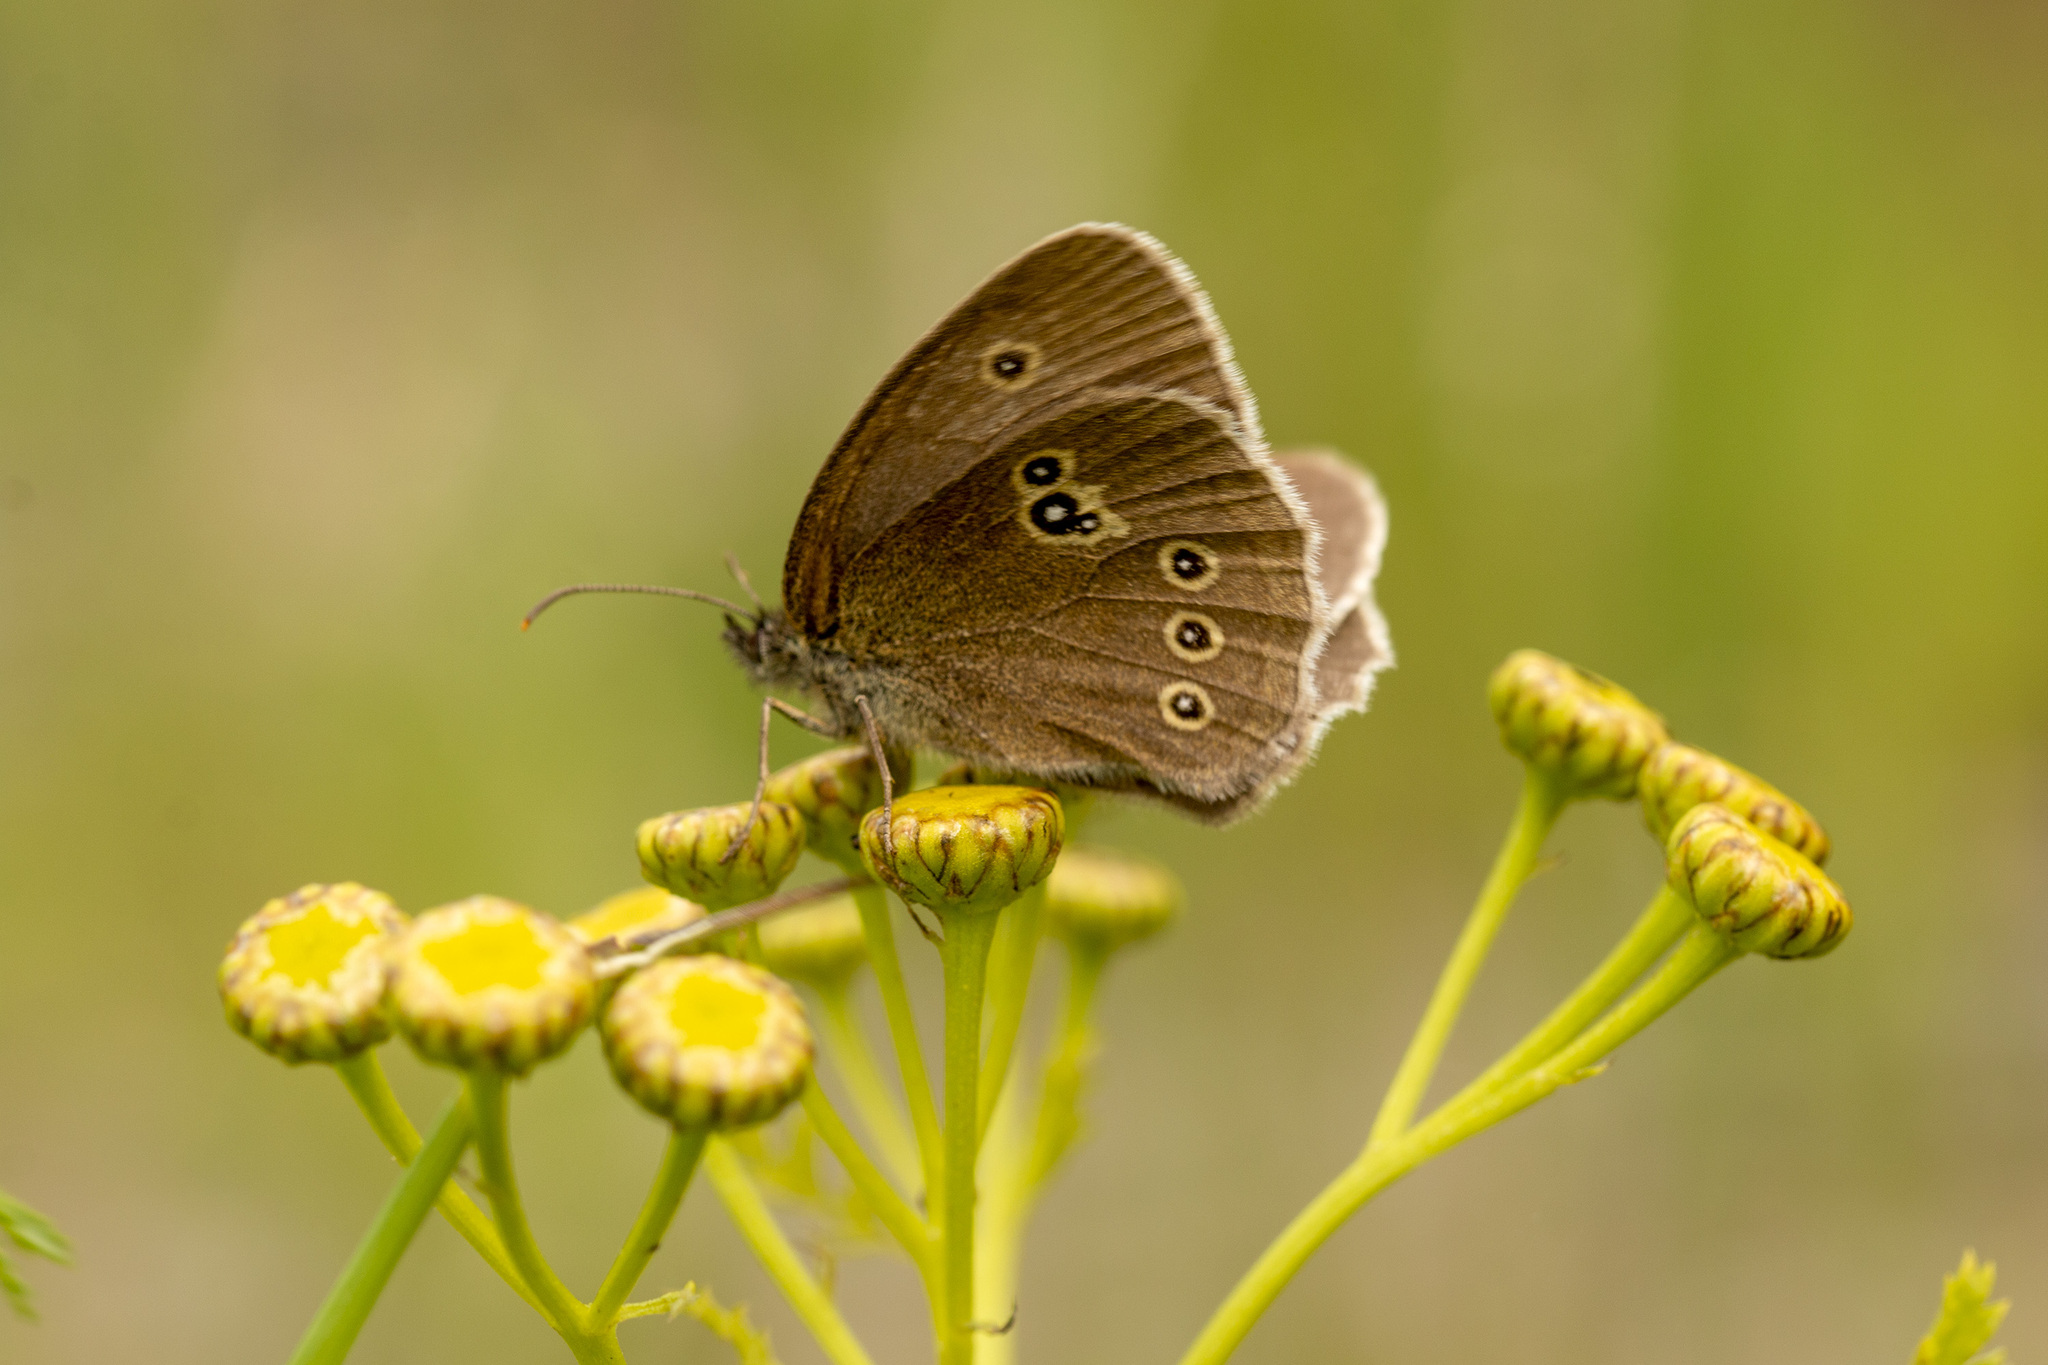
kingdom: Animalia
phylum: Arthropoda
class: Insecta
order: Lepidoptera
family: Nymphalidae
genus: Aphantopus
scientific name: Aphantopus hyperantus
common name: Ringlet
